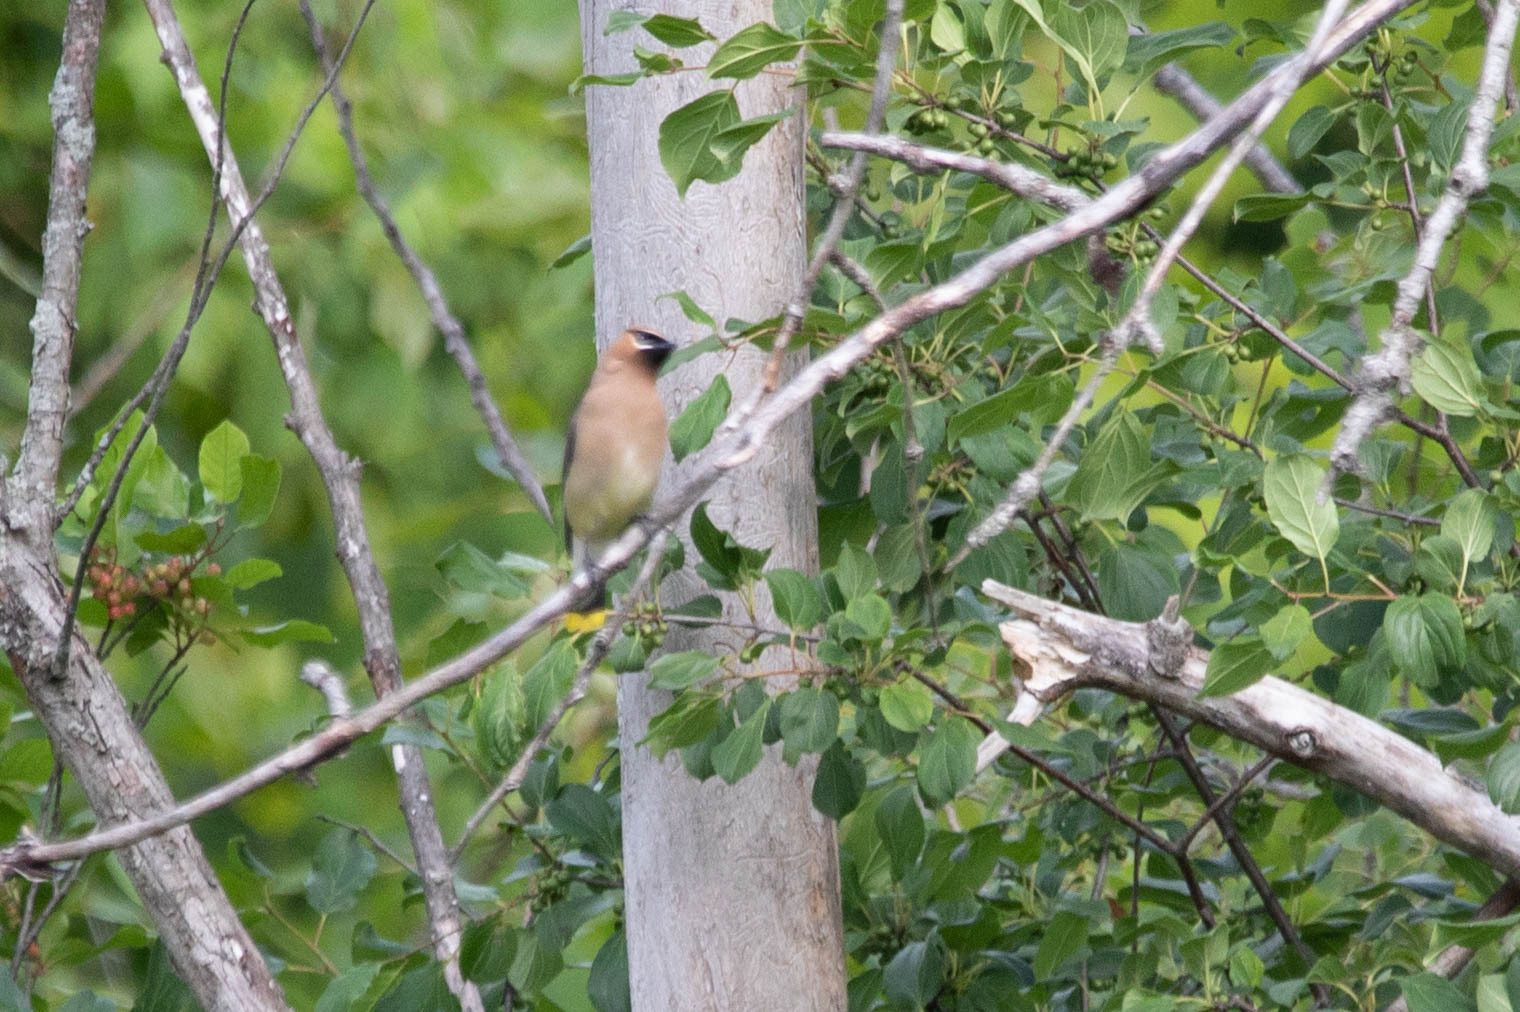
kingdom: Animalia
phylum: Chordata
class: Aves
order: Passeriformes
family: Bombycillidae
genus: Bombycilla
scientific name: Bombycilla cedrorum
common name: Cedar waxwing
